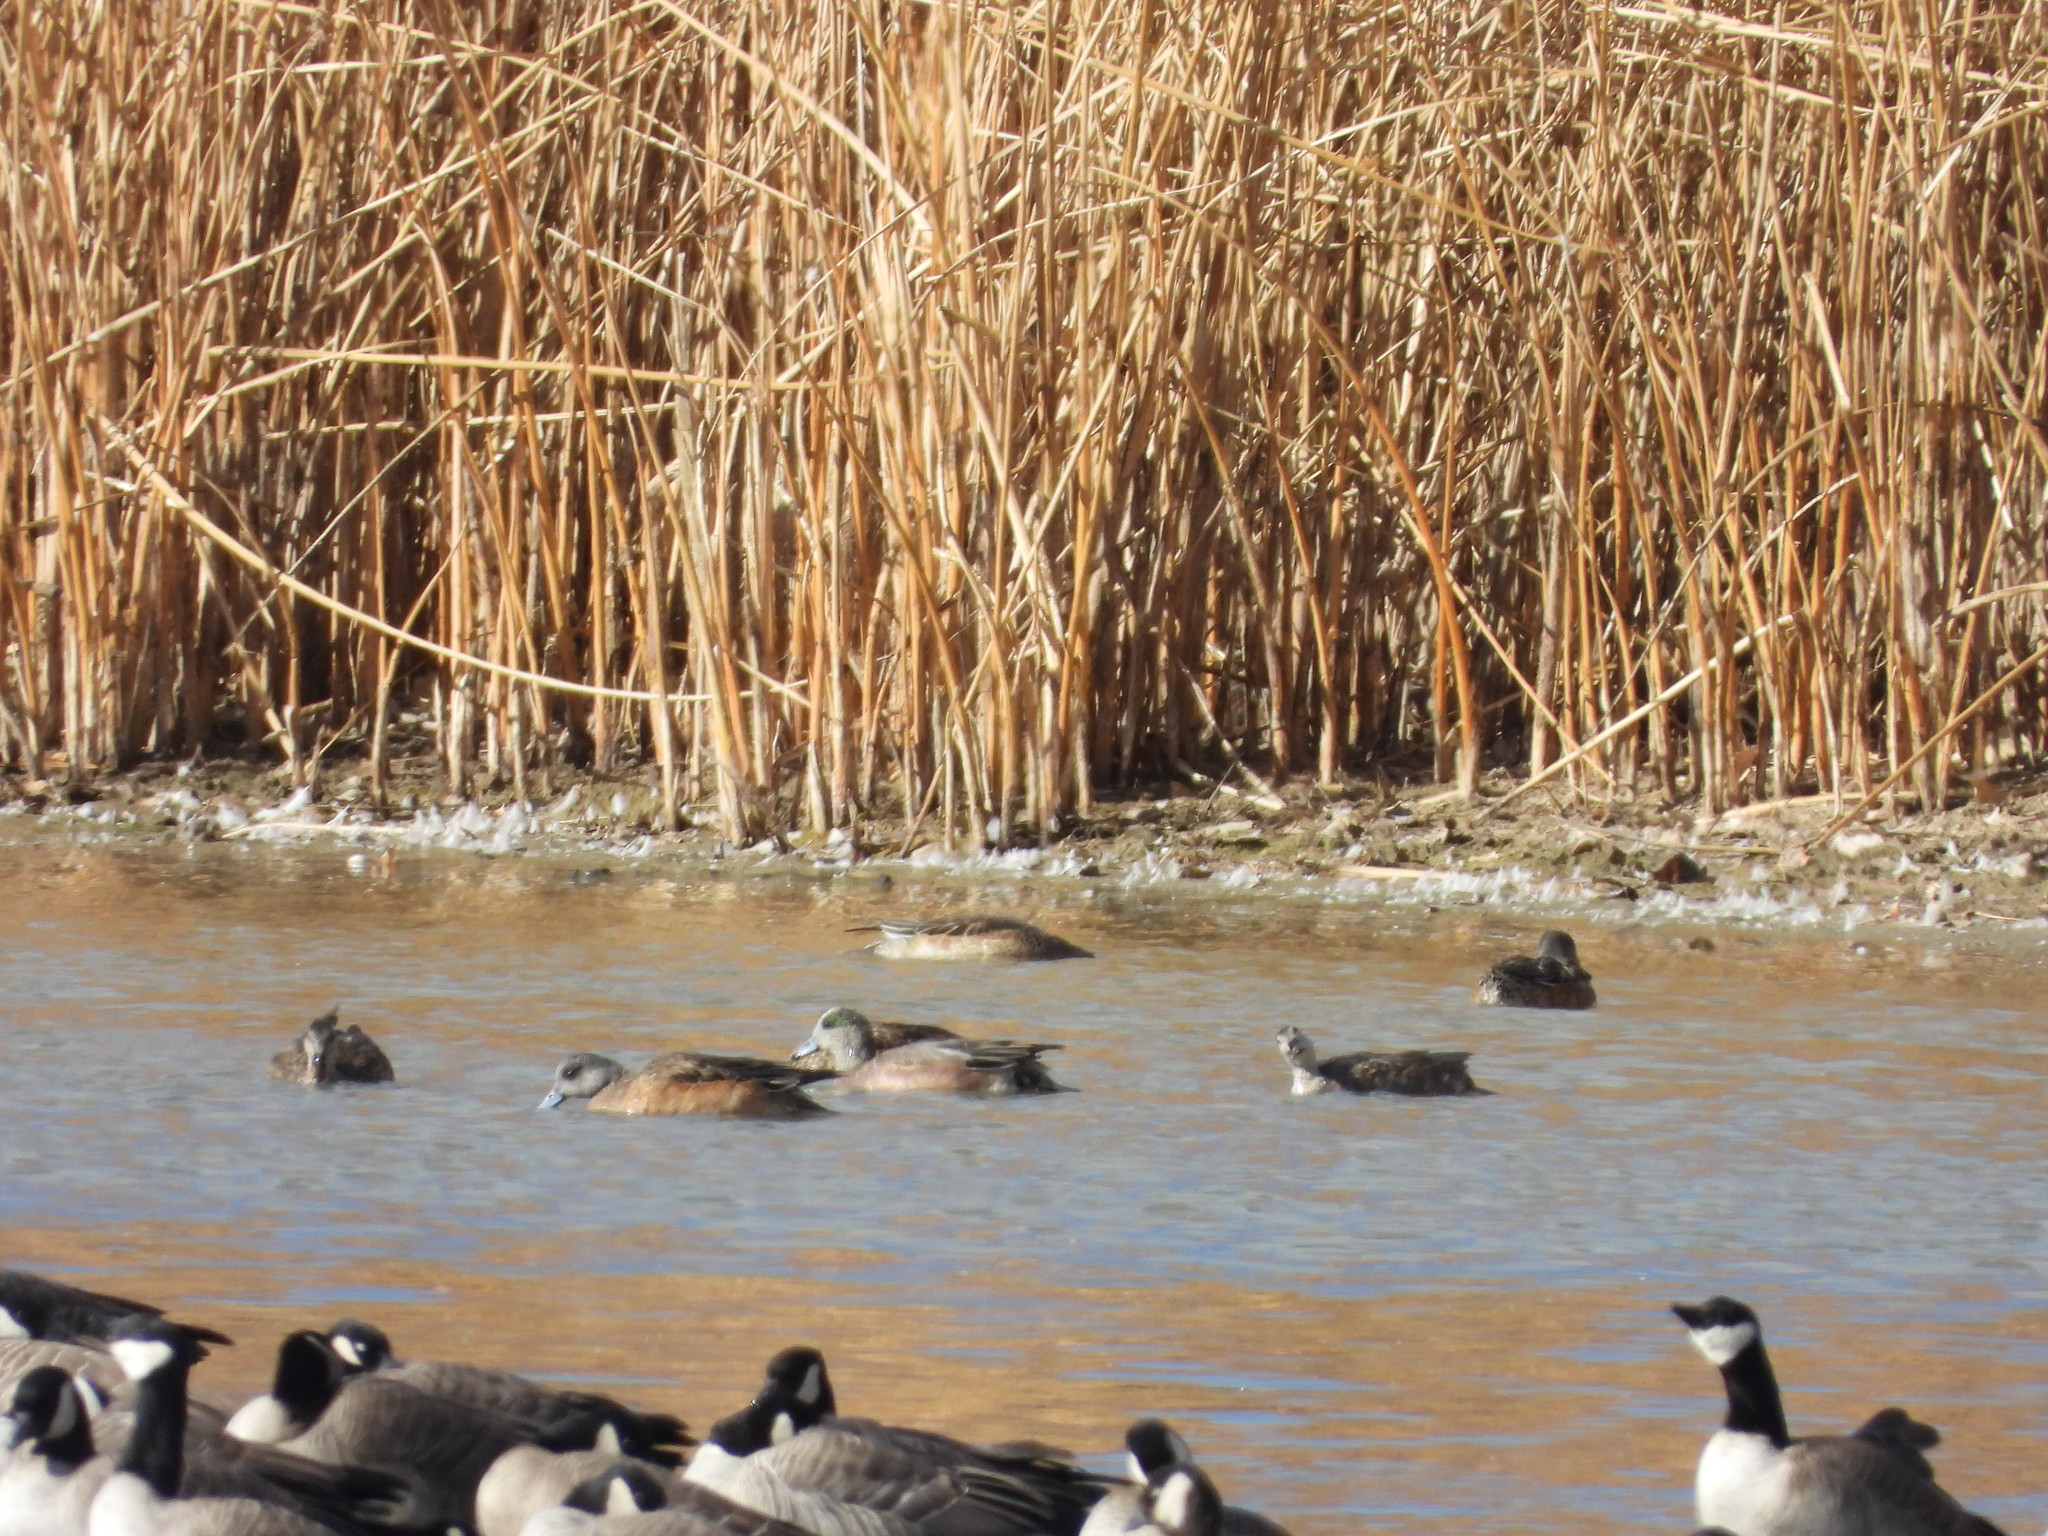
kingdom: Animalia
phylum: Chordata
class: Aves
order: Anseriformes
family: Anatidae
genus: Mareca
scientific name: Mareca americana
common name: American wigeon
